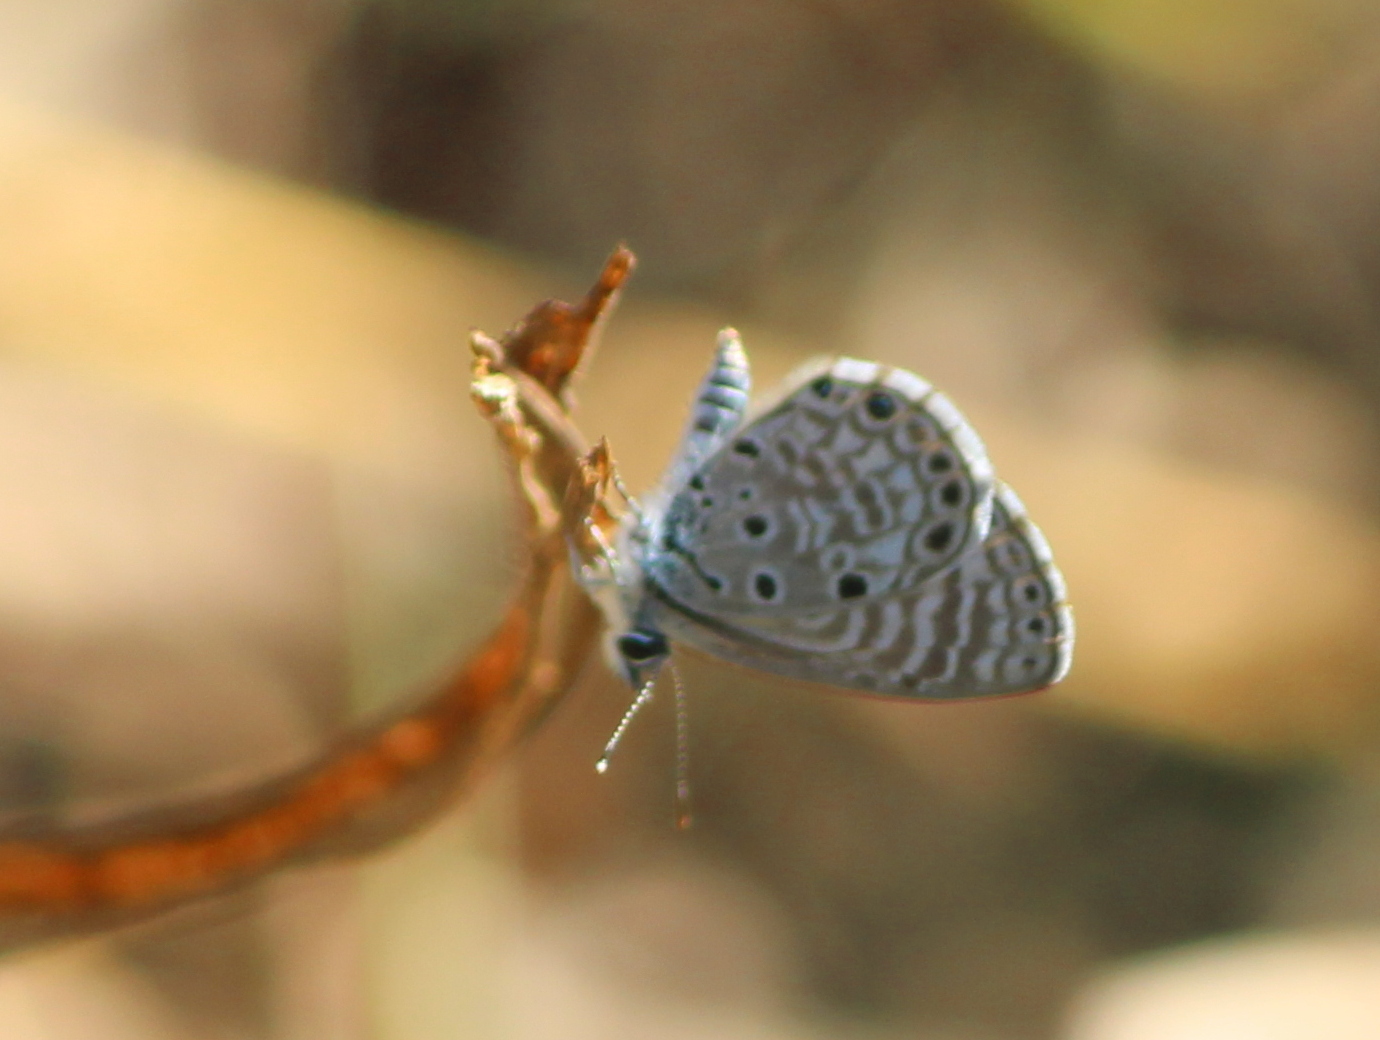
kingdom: Animalia
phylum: Arthropoda
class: Insecta
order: Lepidoptera
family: Lycaenidae
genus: Azanus
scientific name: Azanus jesous
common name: African babul blue
